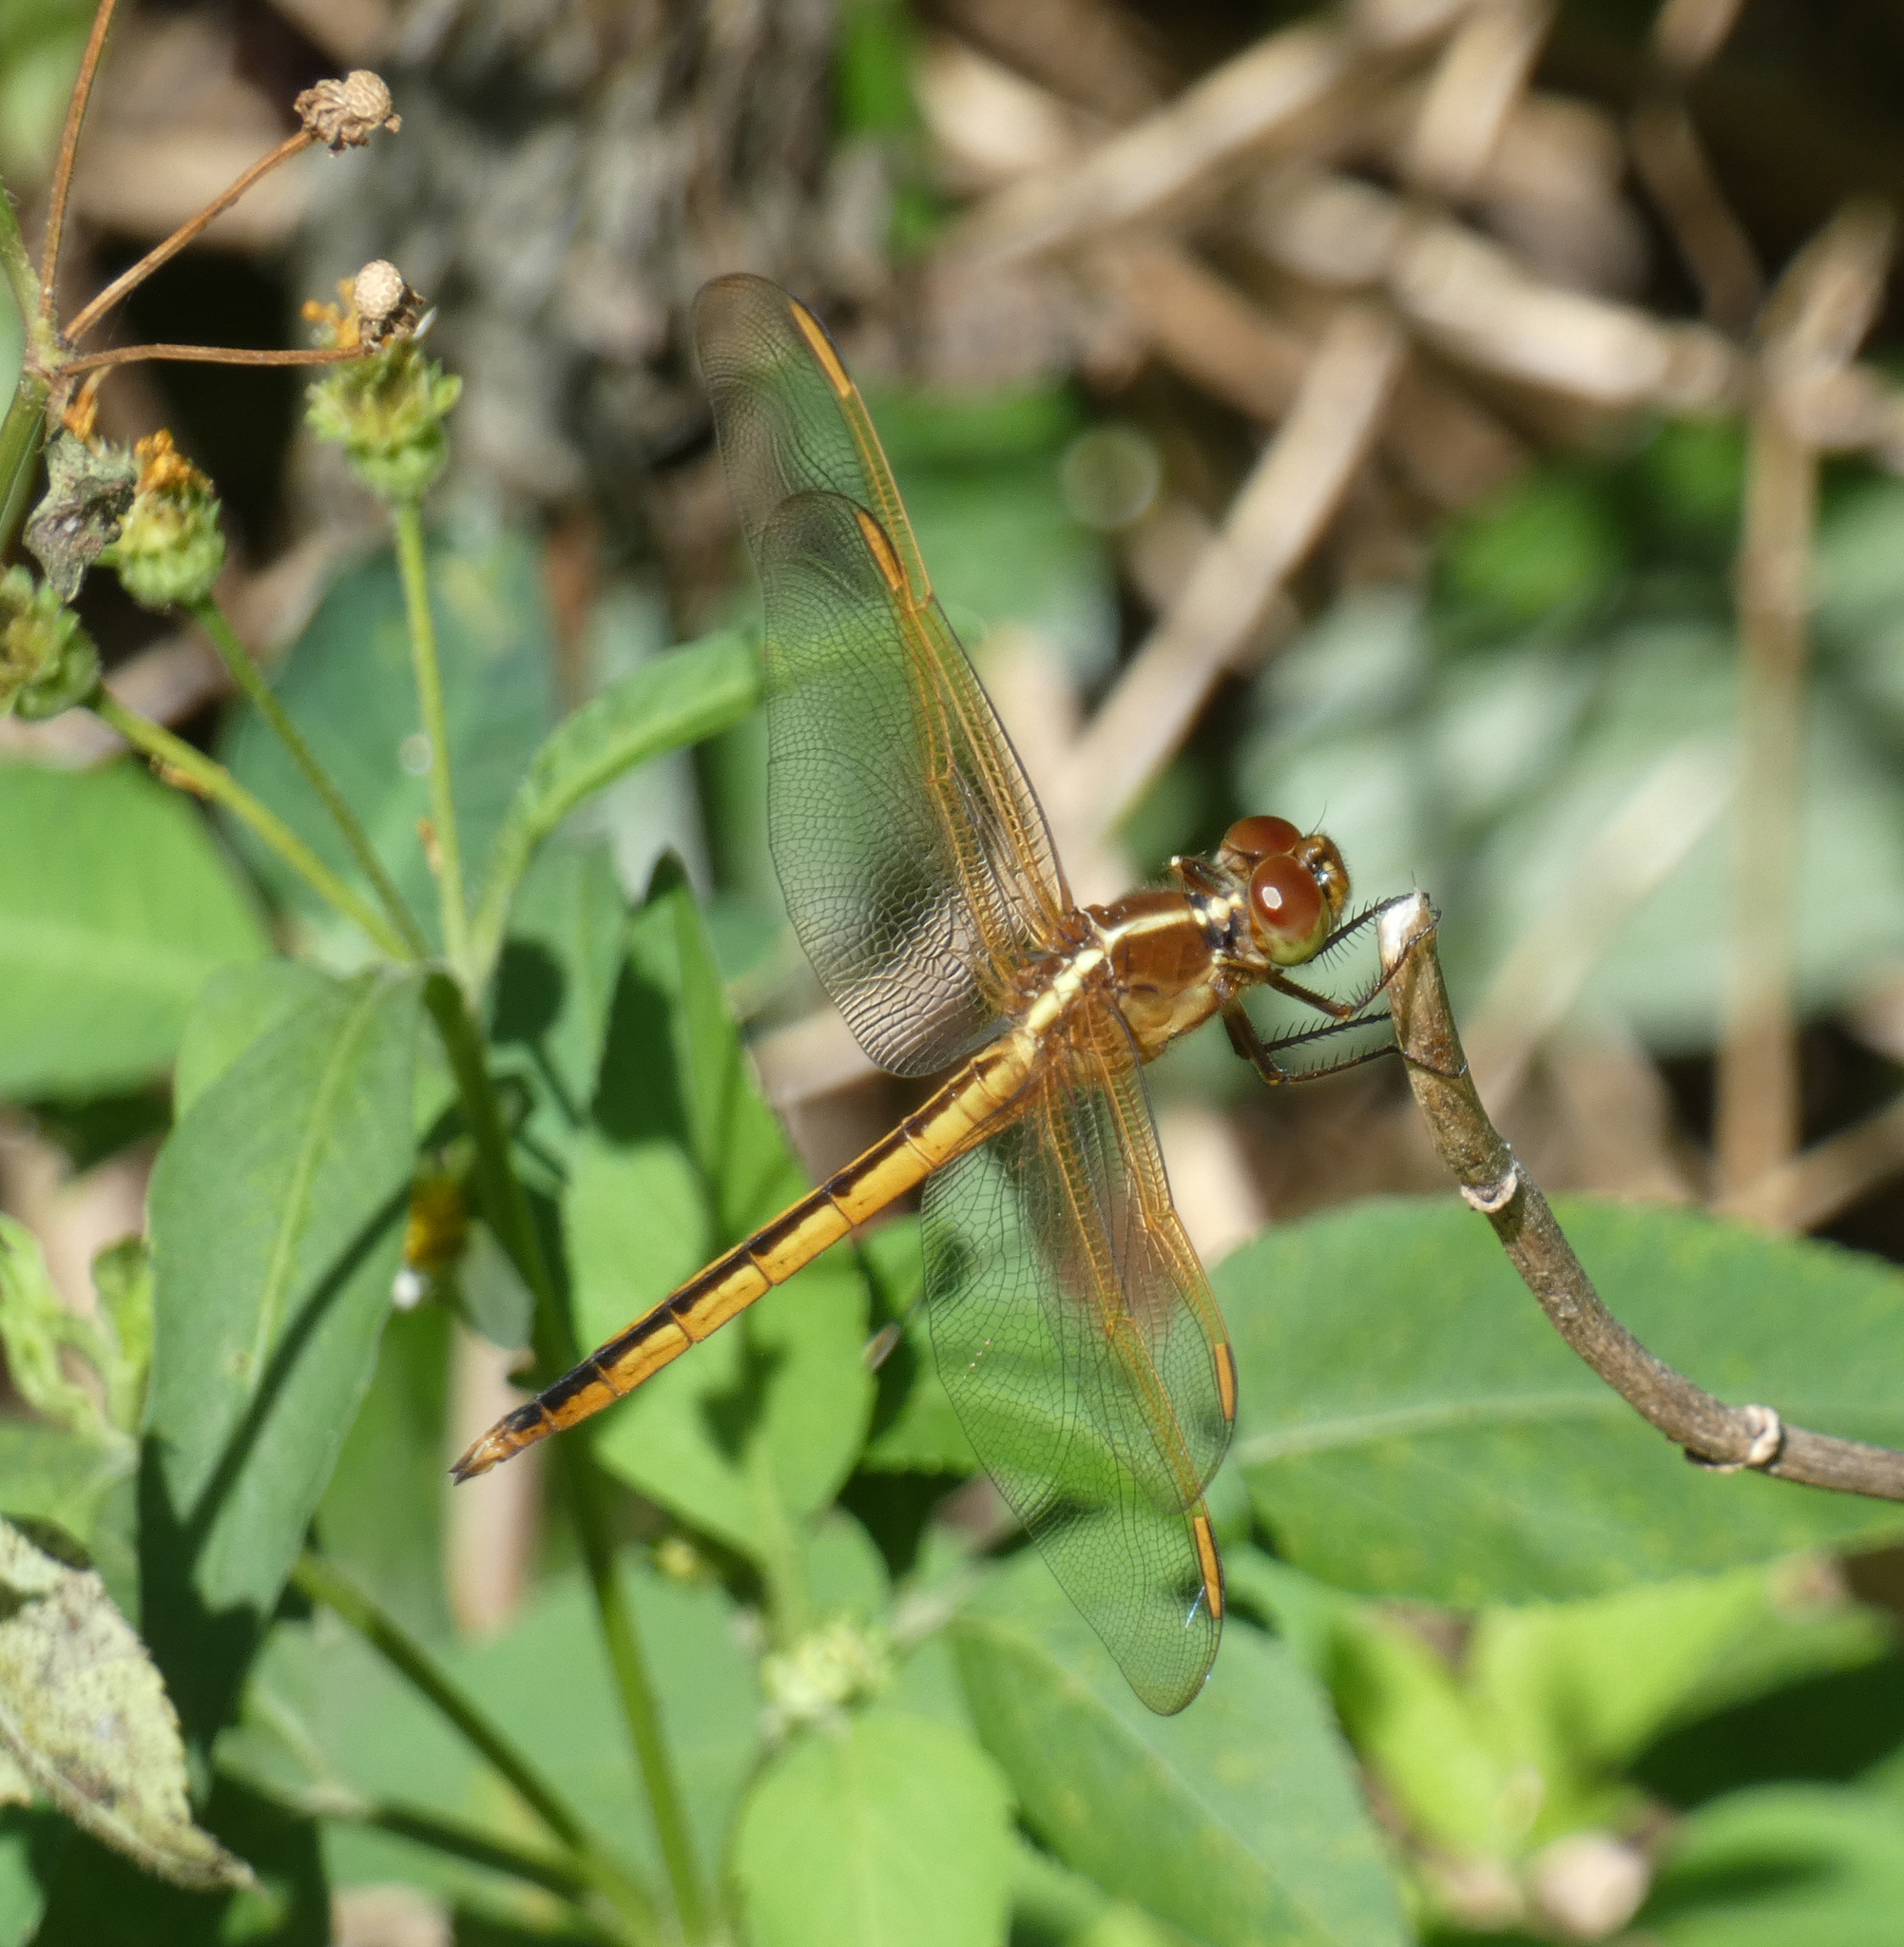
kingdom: Animalia
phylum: Arthropoda
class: Insecta
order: Odonata
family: Libellulidae
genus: Libellula
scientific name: Libellula needhami
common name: Needham's skimmer
